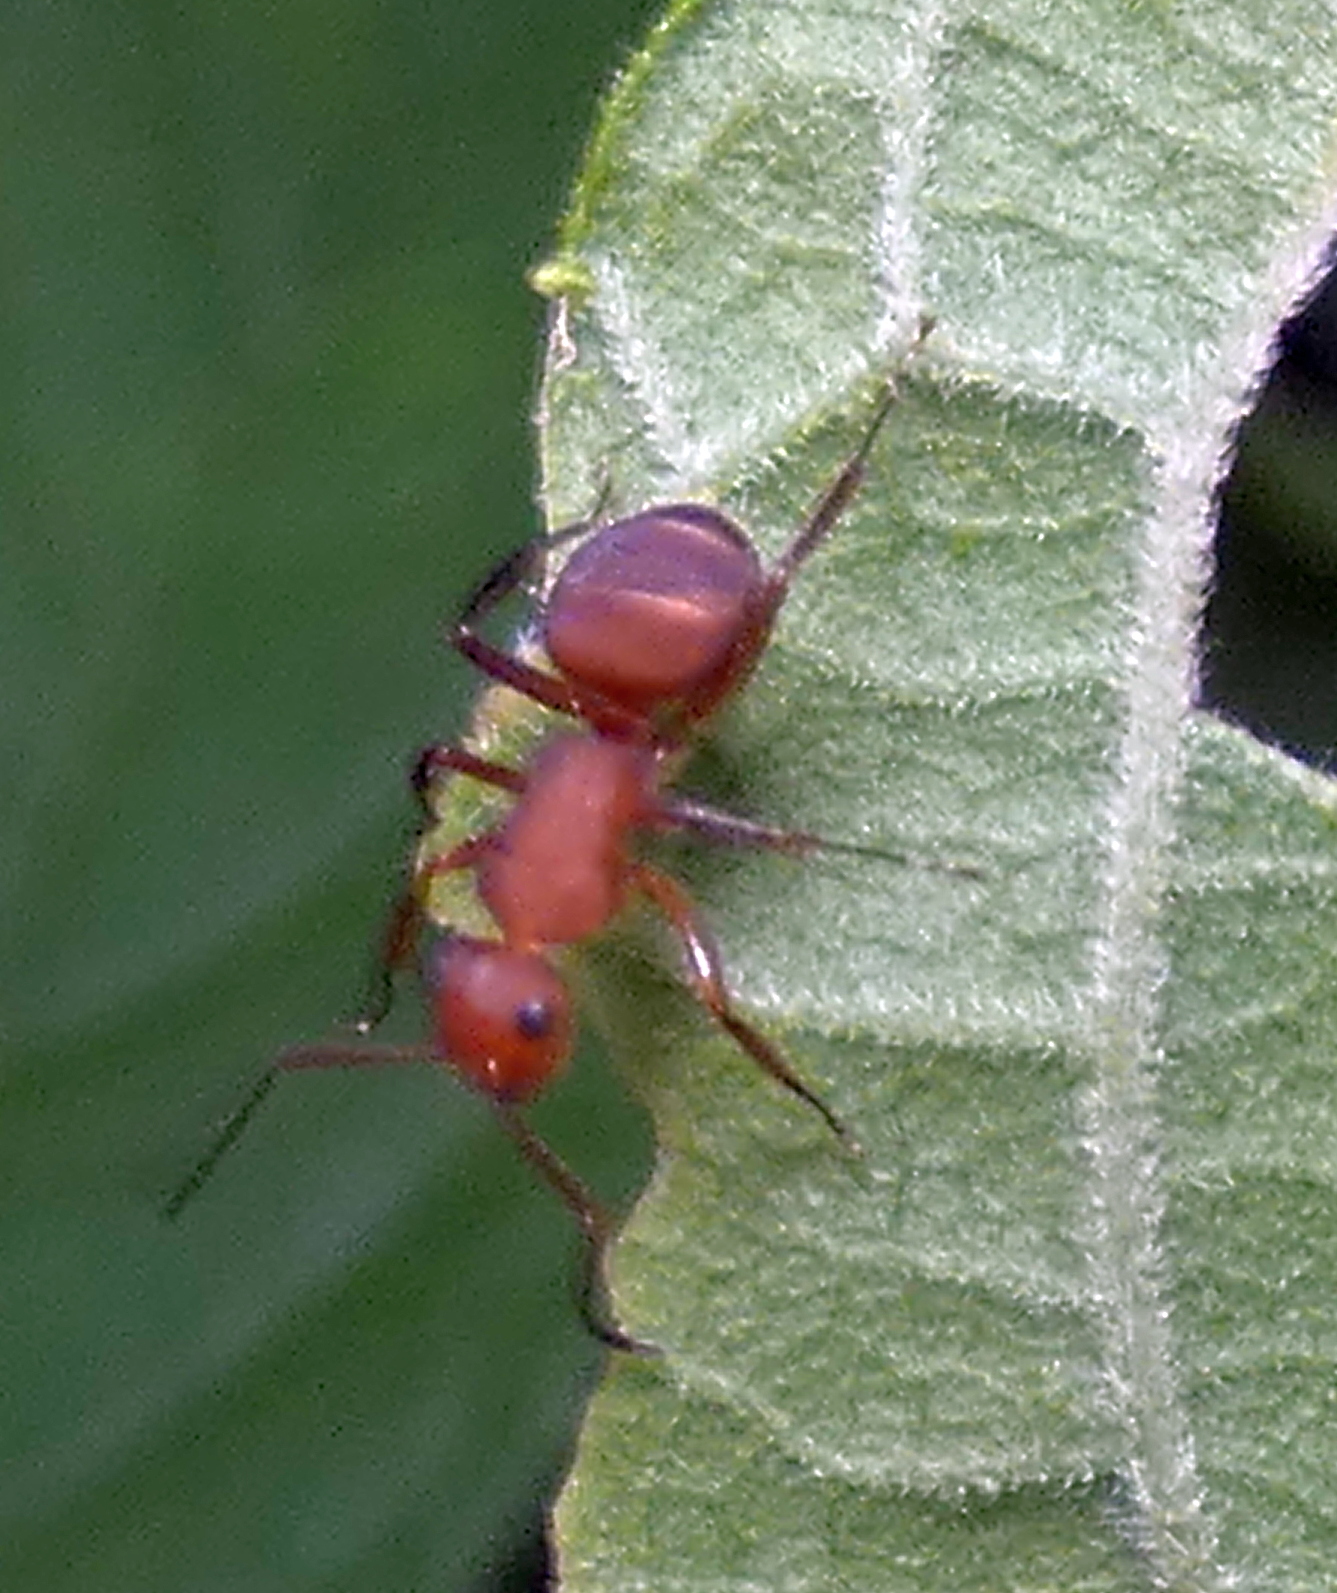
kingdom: Animalia
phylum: Arthropoda
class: Insecta
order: Hymenoptera
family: Formicidae
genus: Camponotus
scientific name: Camponotus rectangularis
